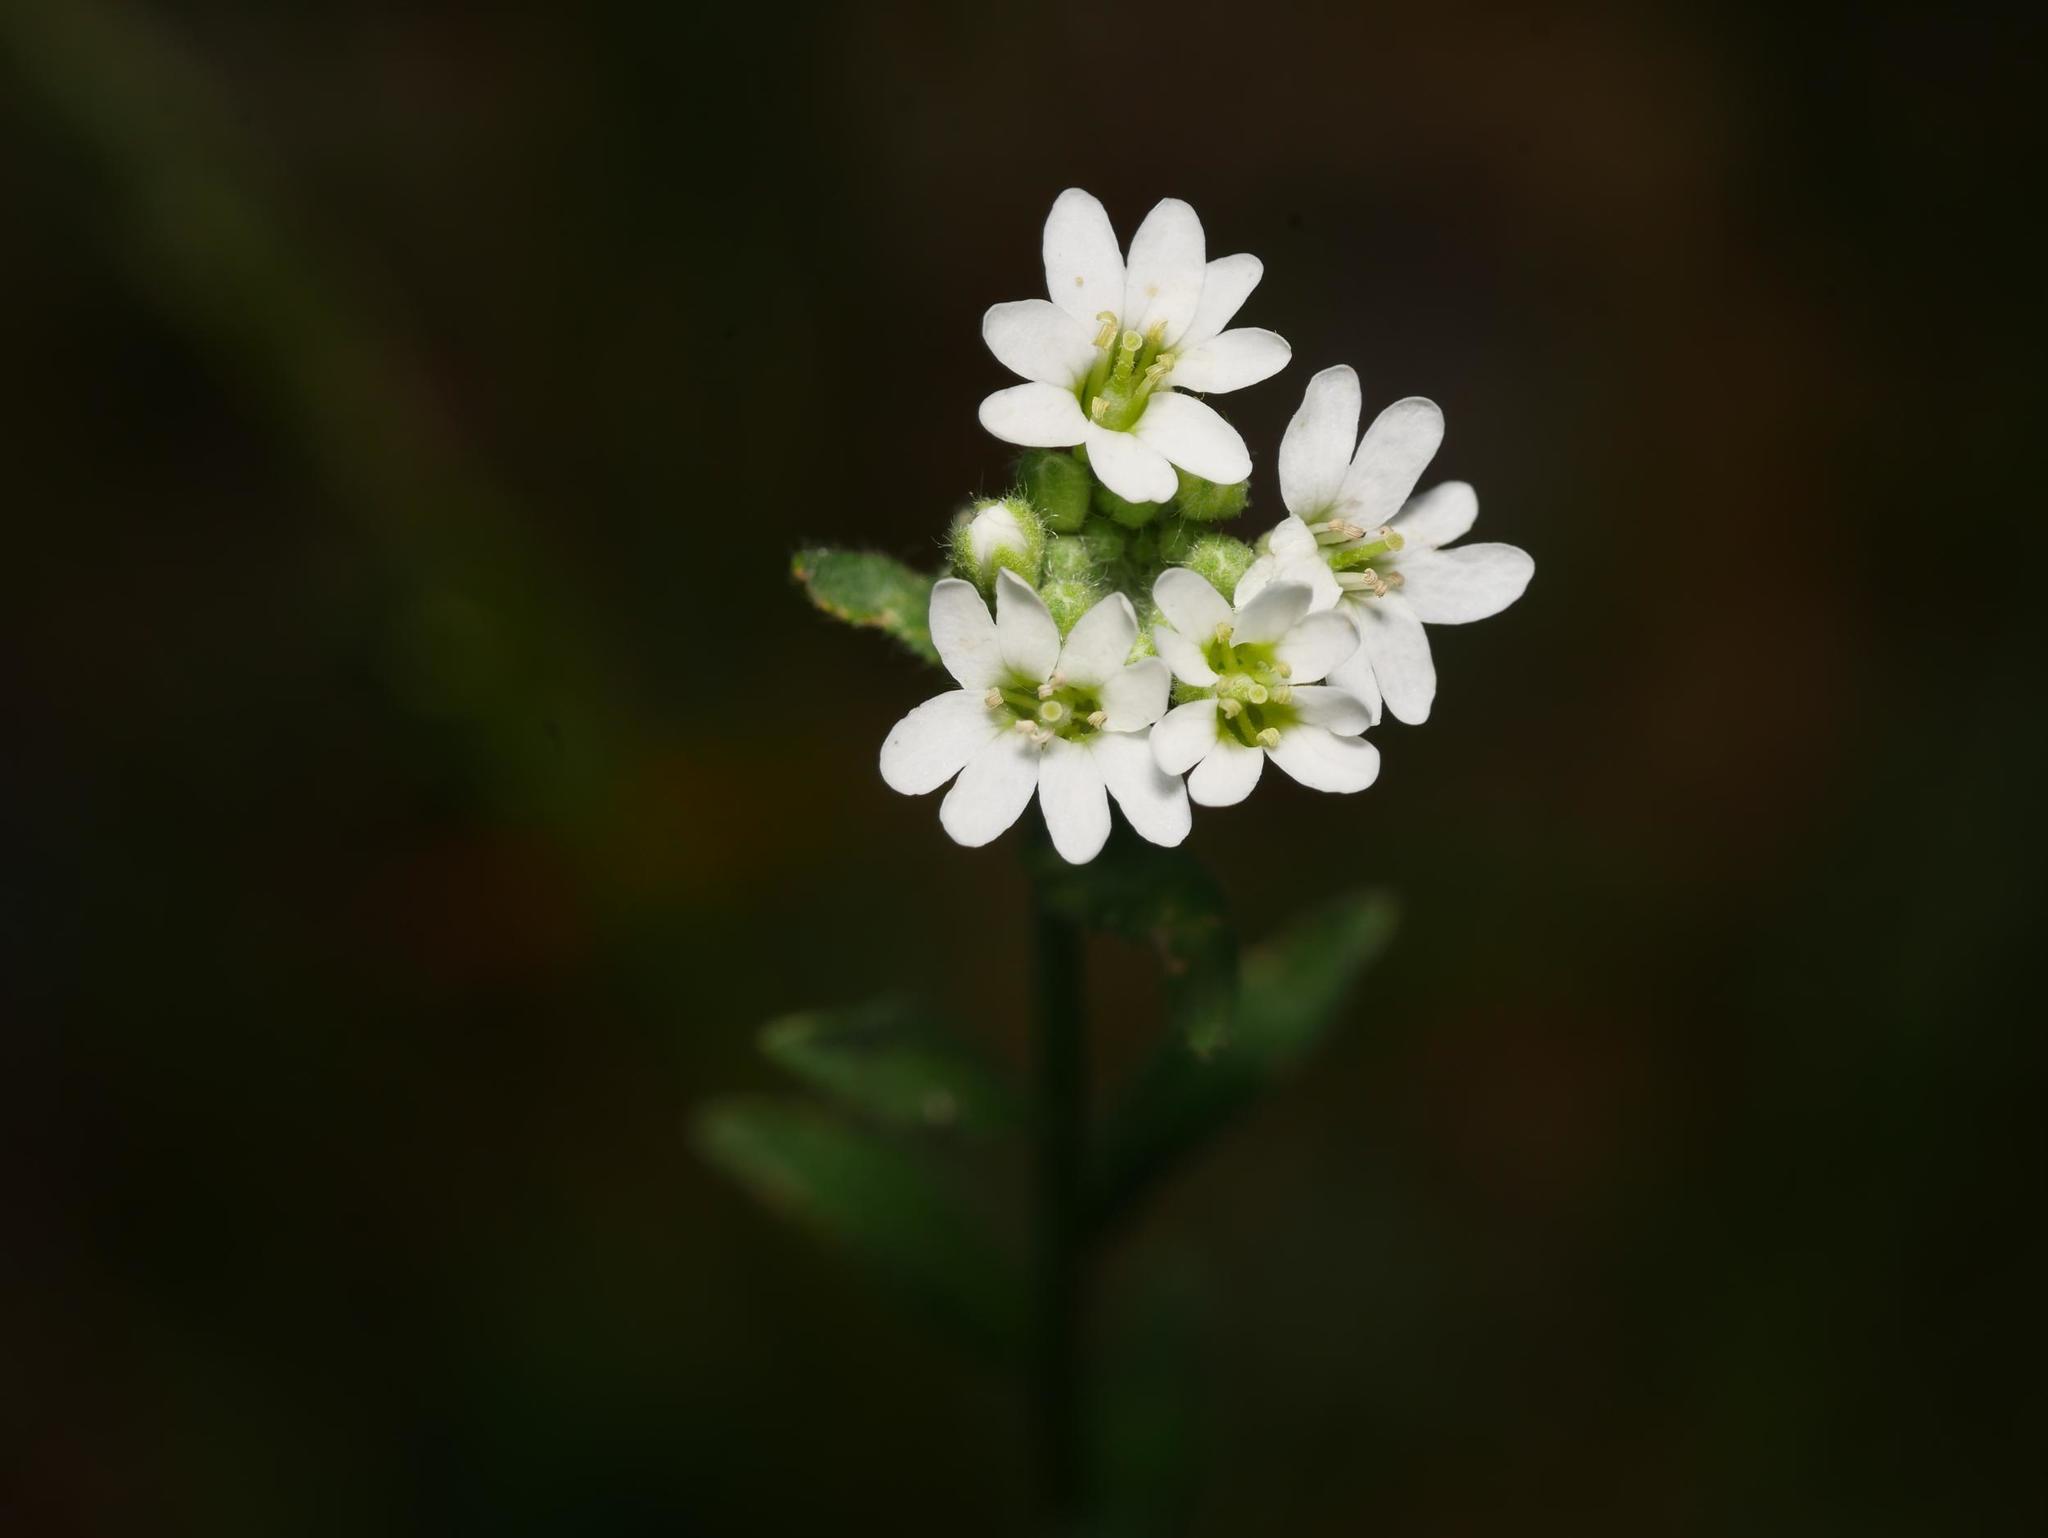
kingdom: Plantae
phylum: Tracheophyta
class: Magnoliopsida
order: Brassicales
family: Brassicaceae
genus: Berteroa
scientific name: Berteroa incana
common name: Hoary alison
